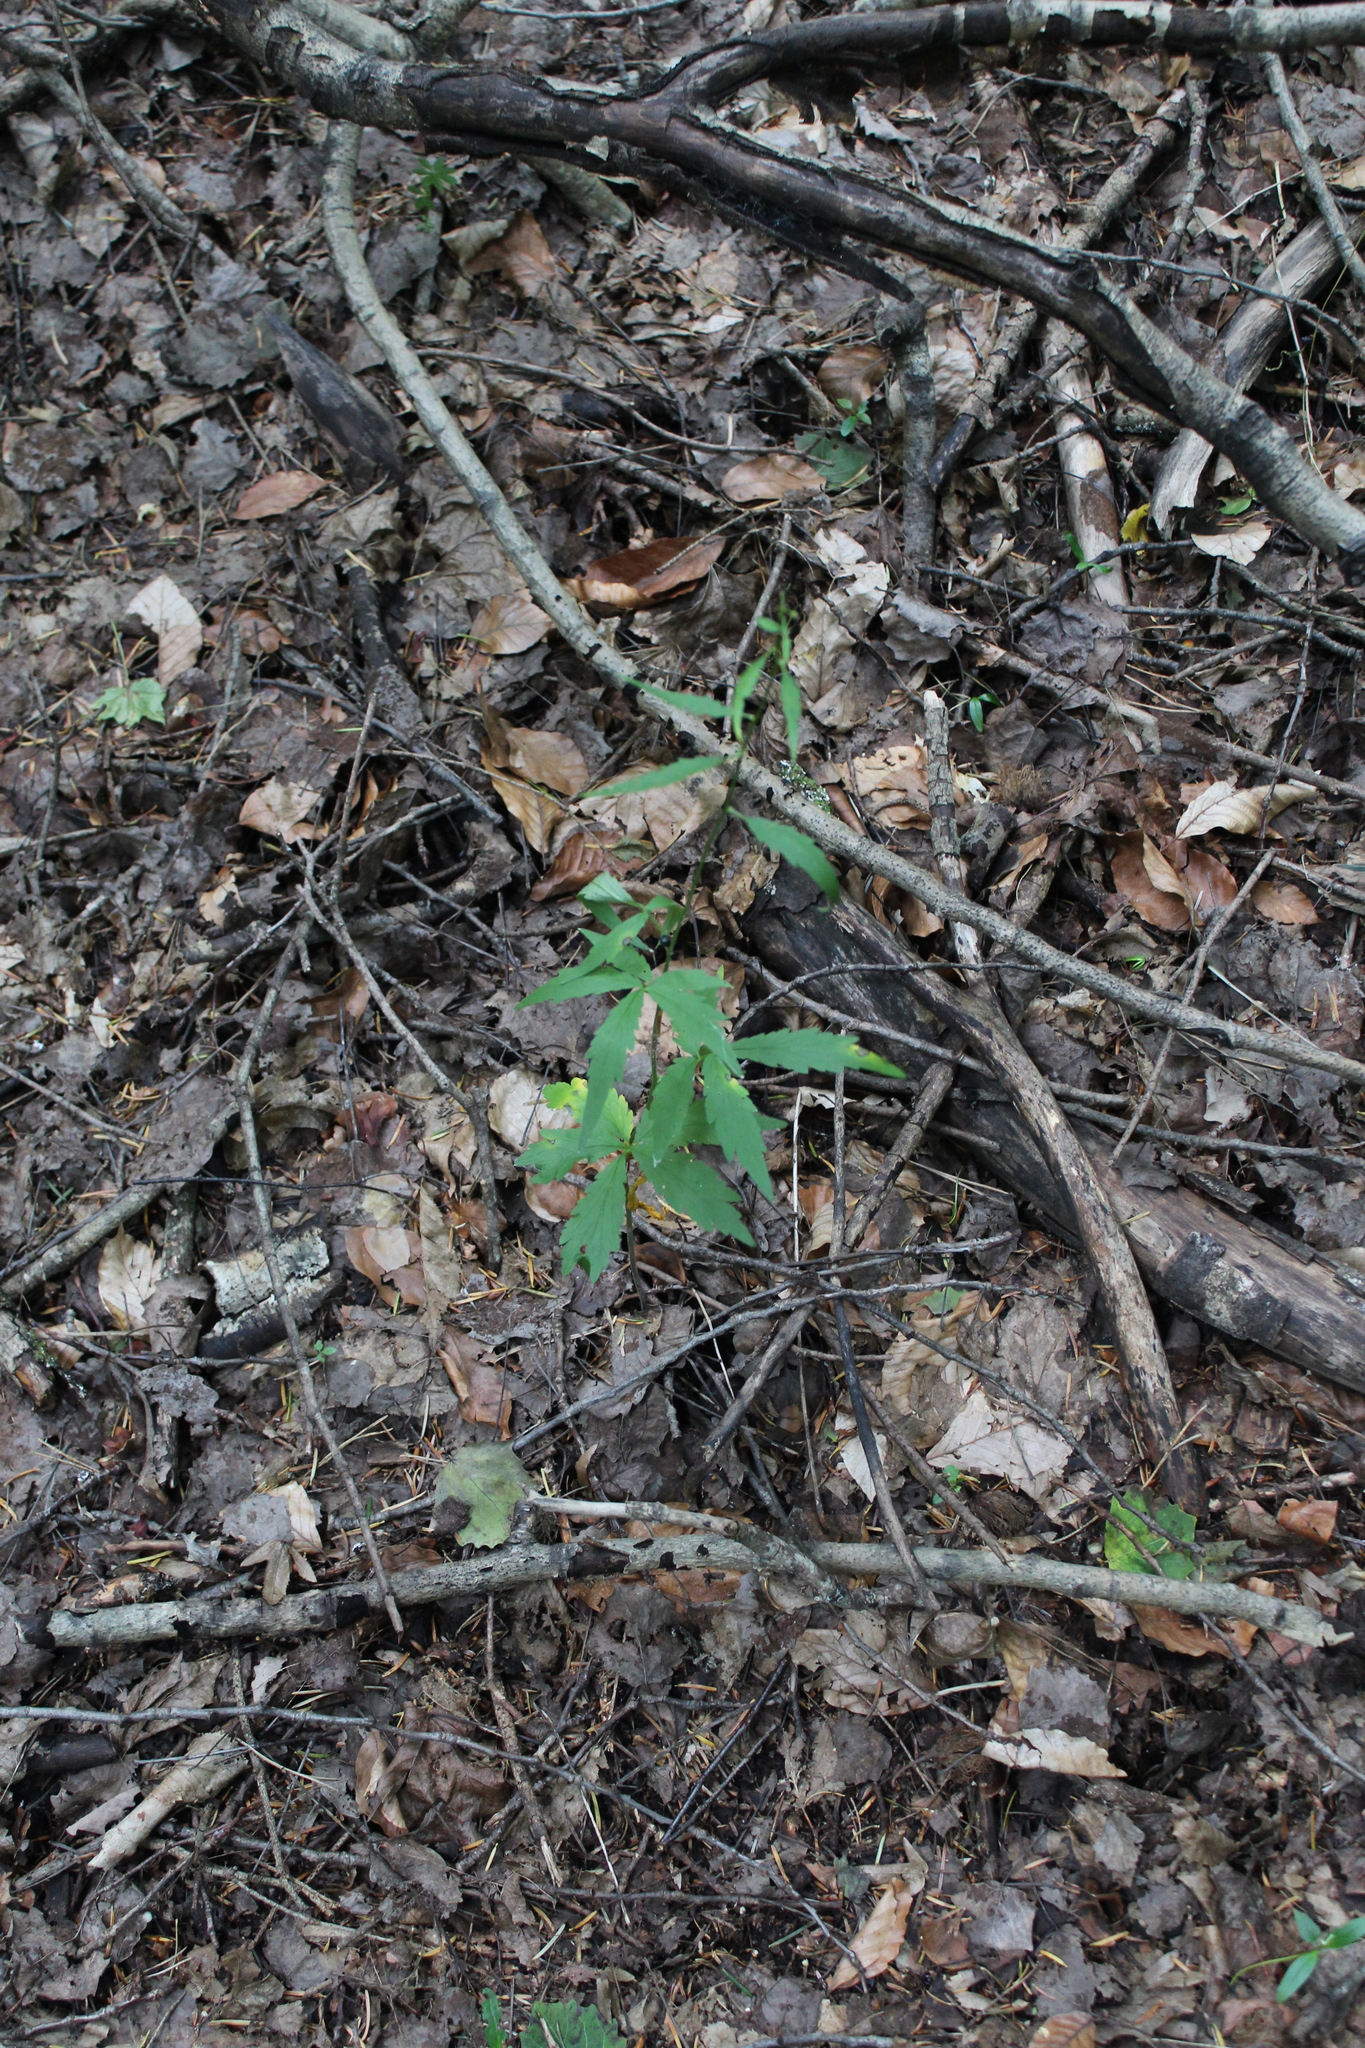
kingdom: Plantae
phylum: Tracheophyta
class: Magnoliopsida
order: Brassicales
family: Brassicaceae
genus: Cardamine
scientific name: Cardamine bulbifera
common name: Coralroot bittercress
